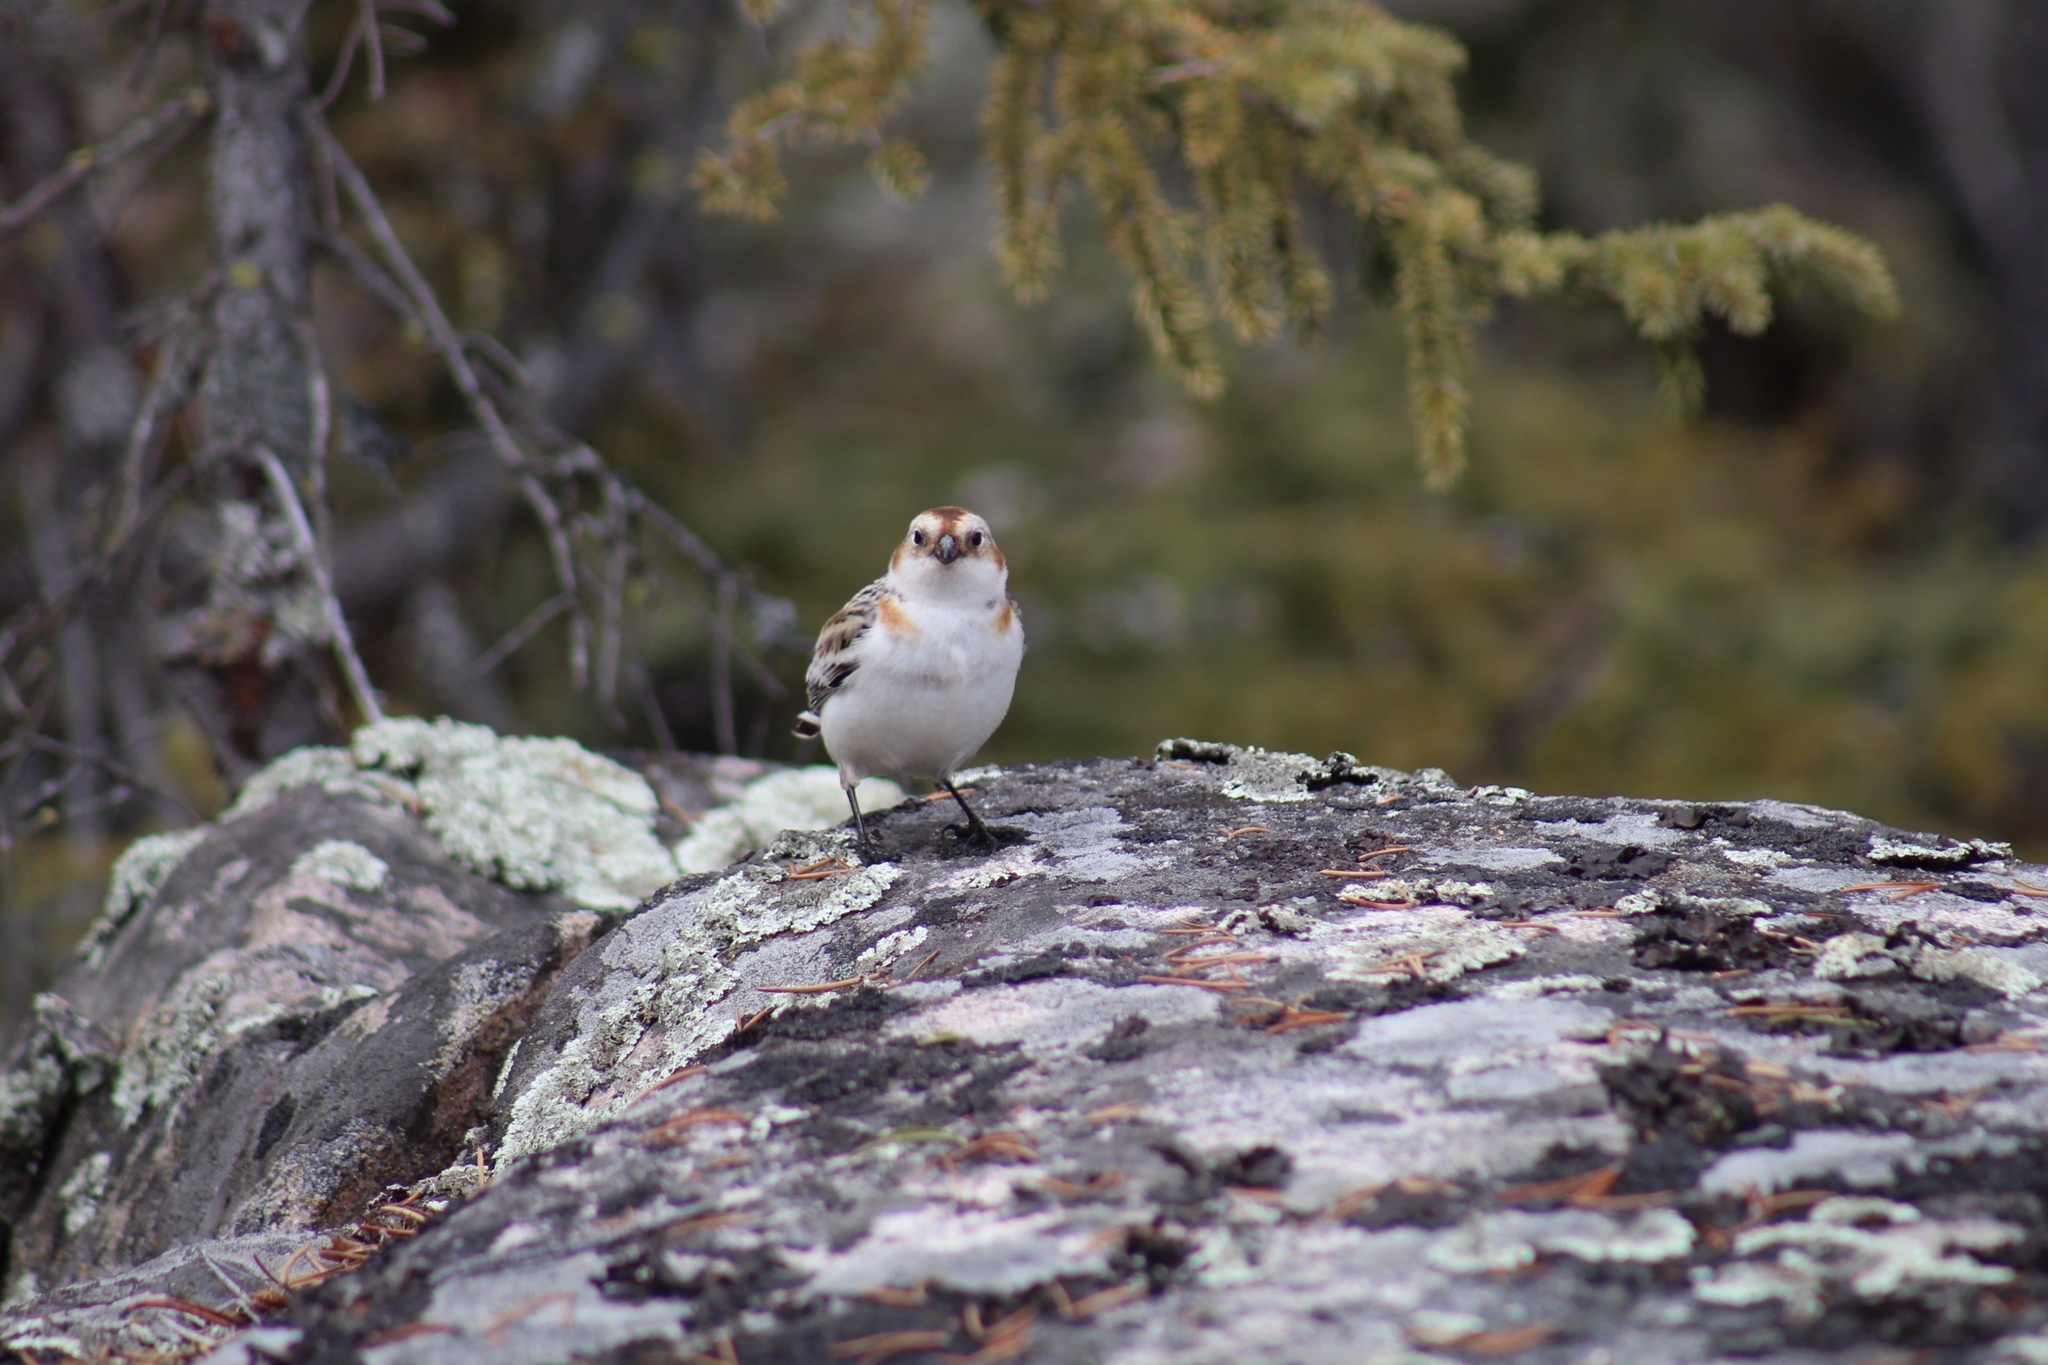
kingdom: Animalia
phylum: Chordata
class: Aves
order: Passeriformes
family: Calcariidae
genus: Plectrophenax
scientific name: Plectrophenax nivalis
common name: Snow bunting
